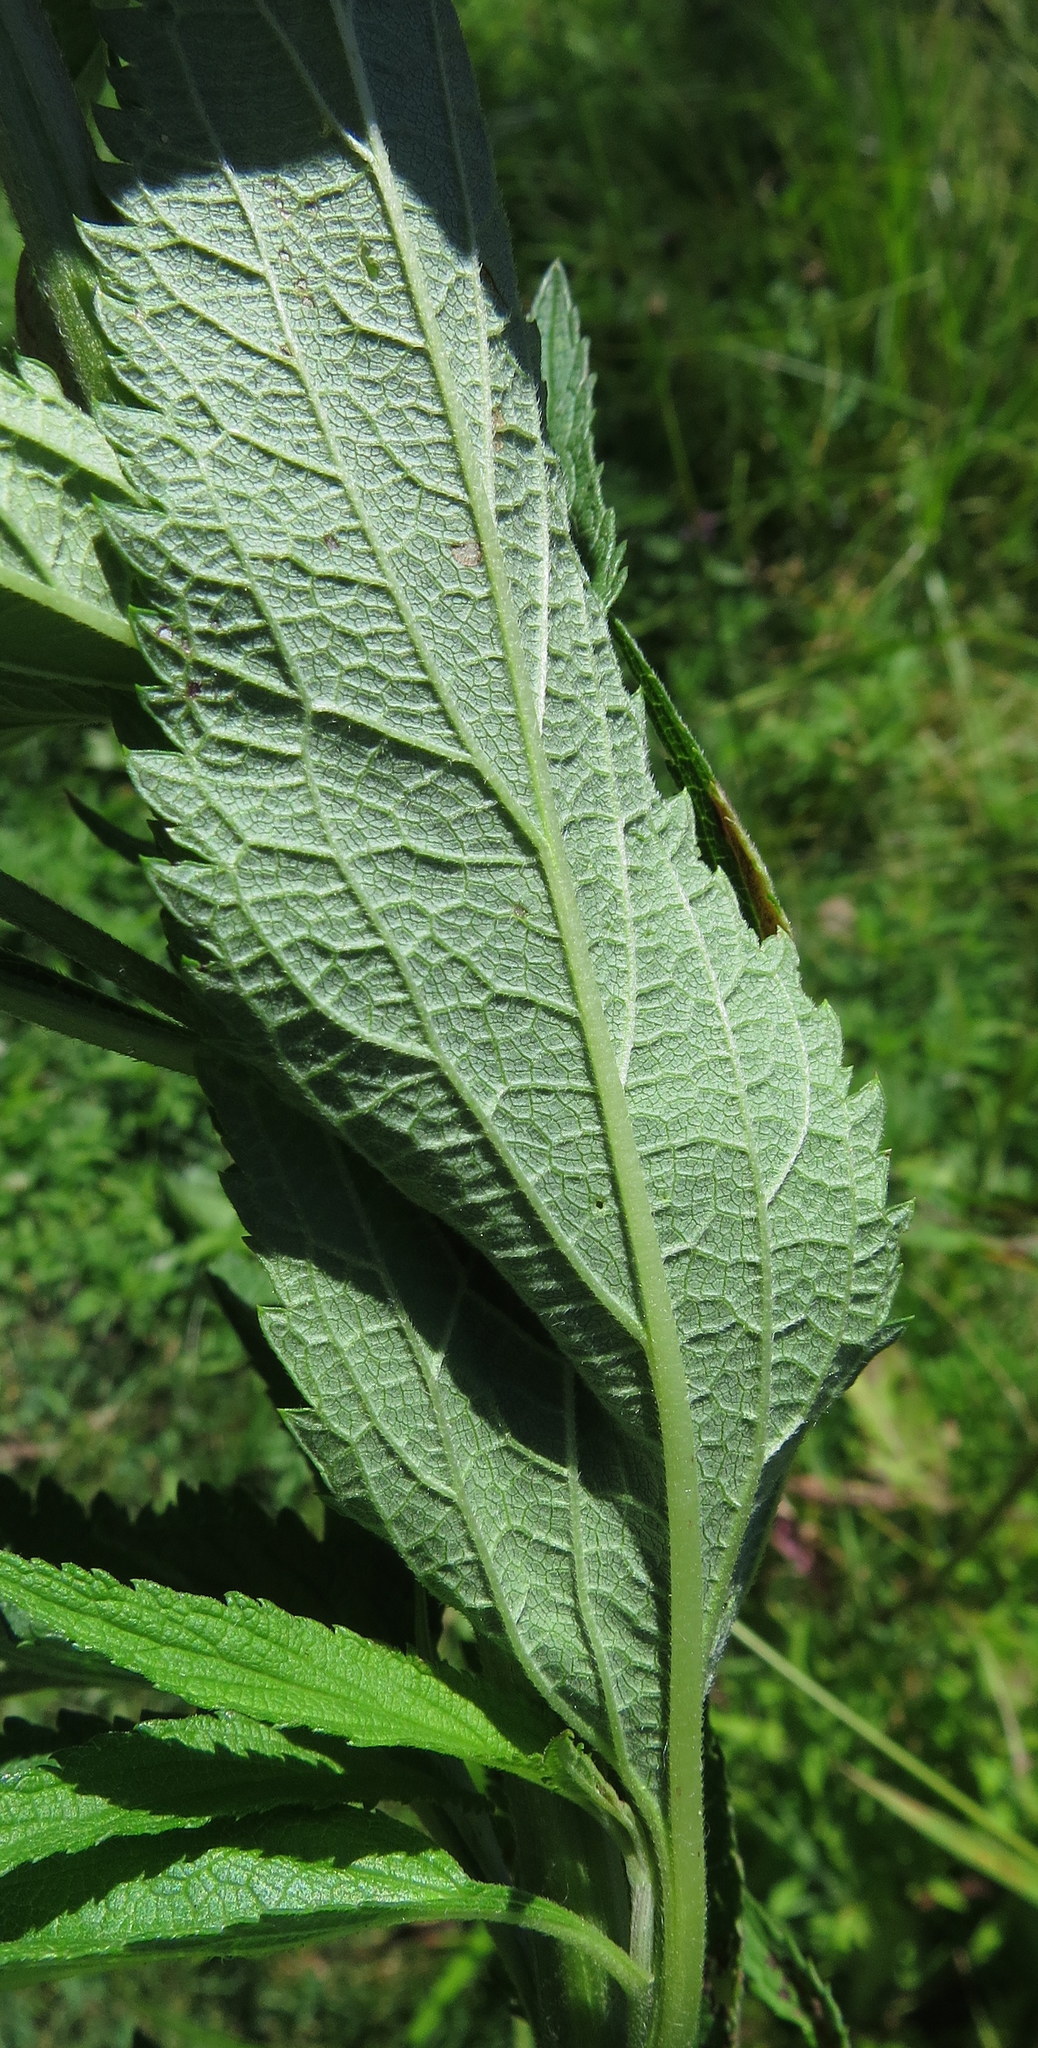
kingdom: Plantae
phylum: Tracheophyta
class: Magnoliopsida
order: Lamiales
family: Verbenaceae
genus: Verbena
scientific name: Verbena hastata
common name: American blue vervain
